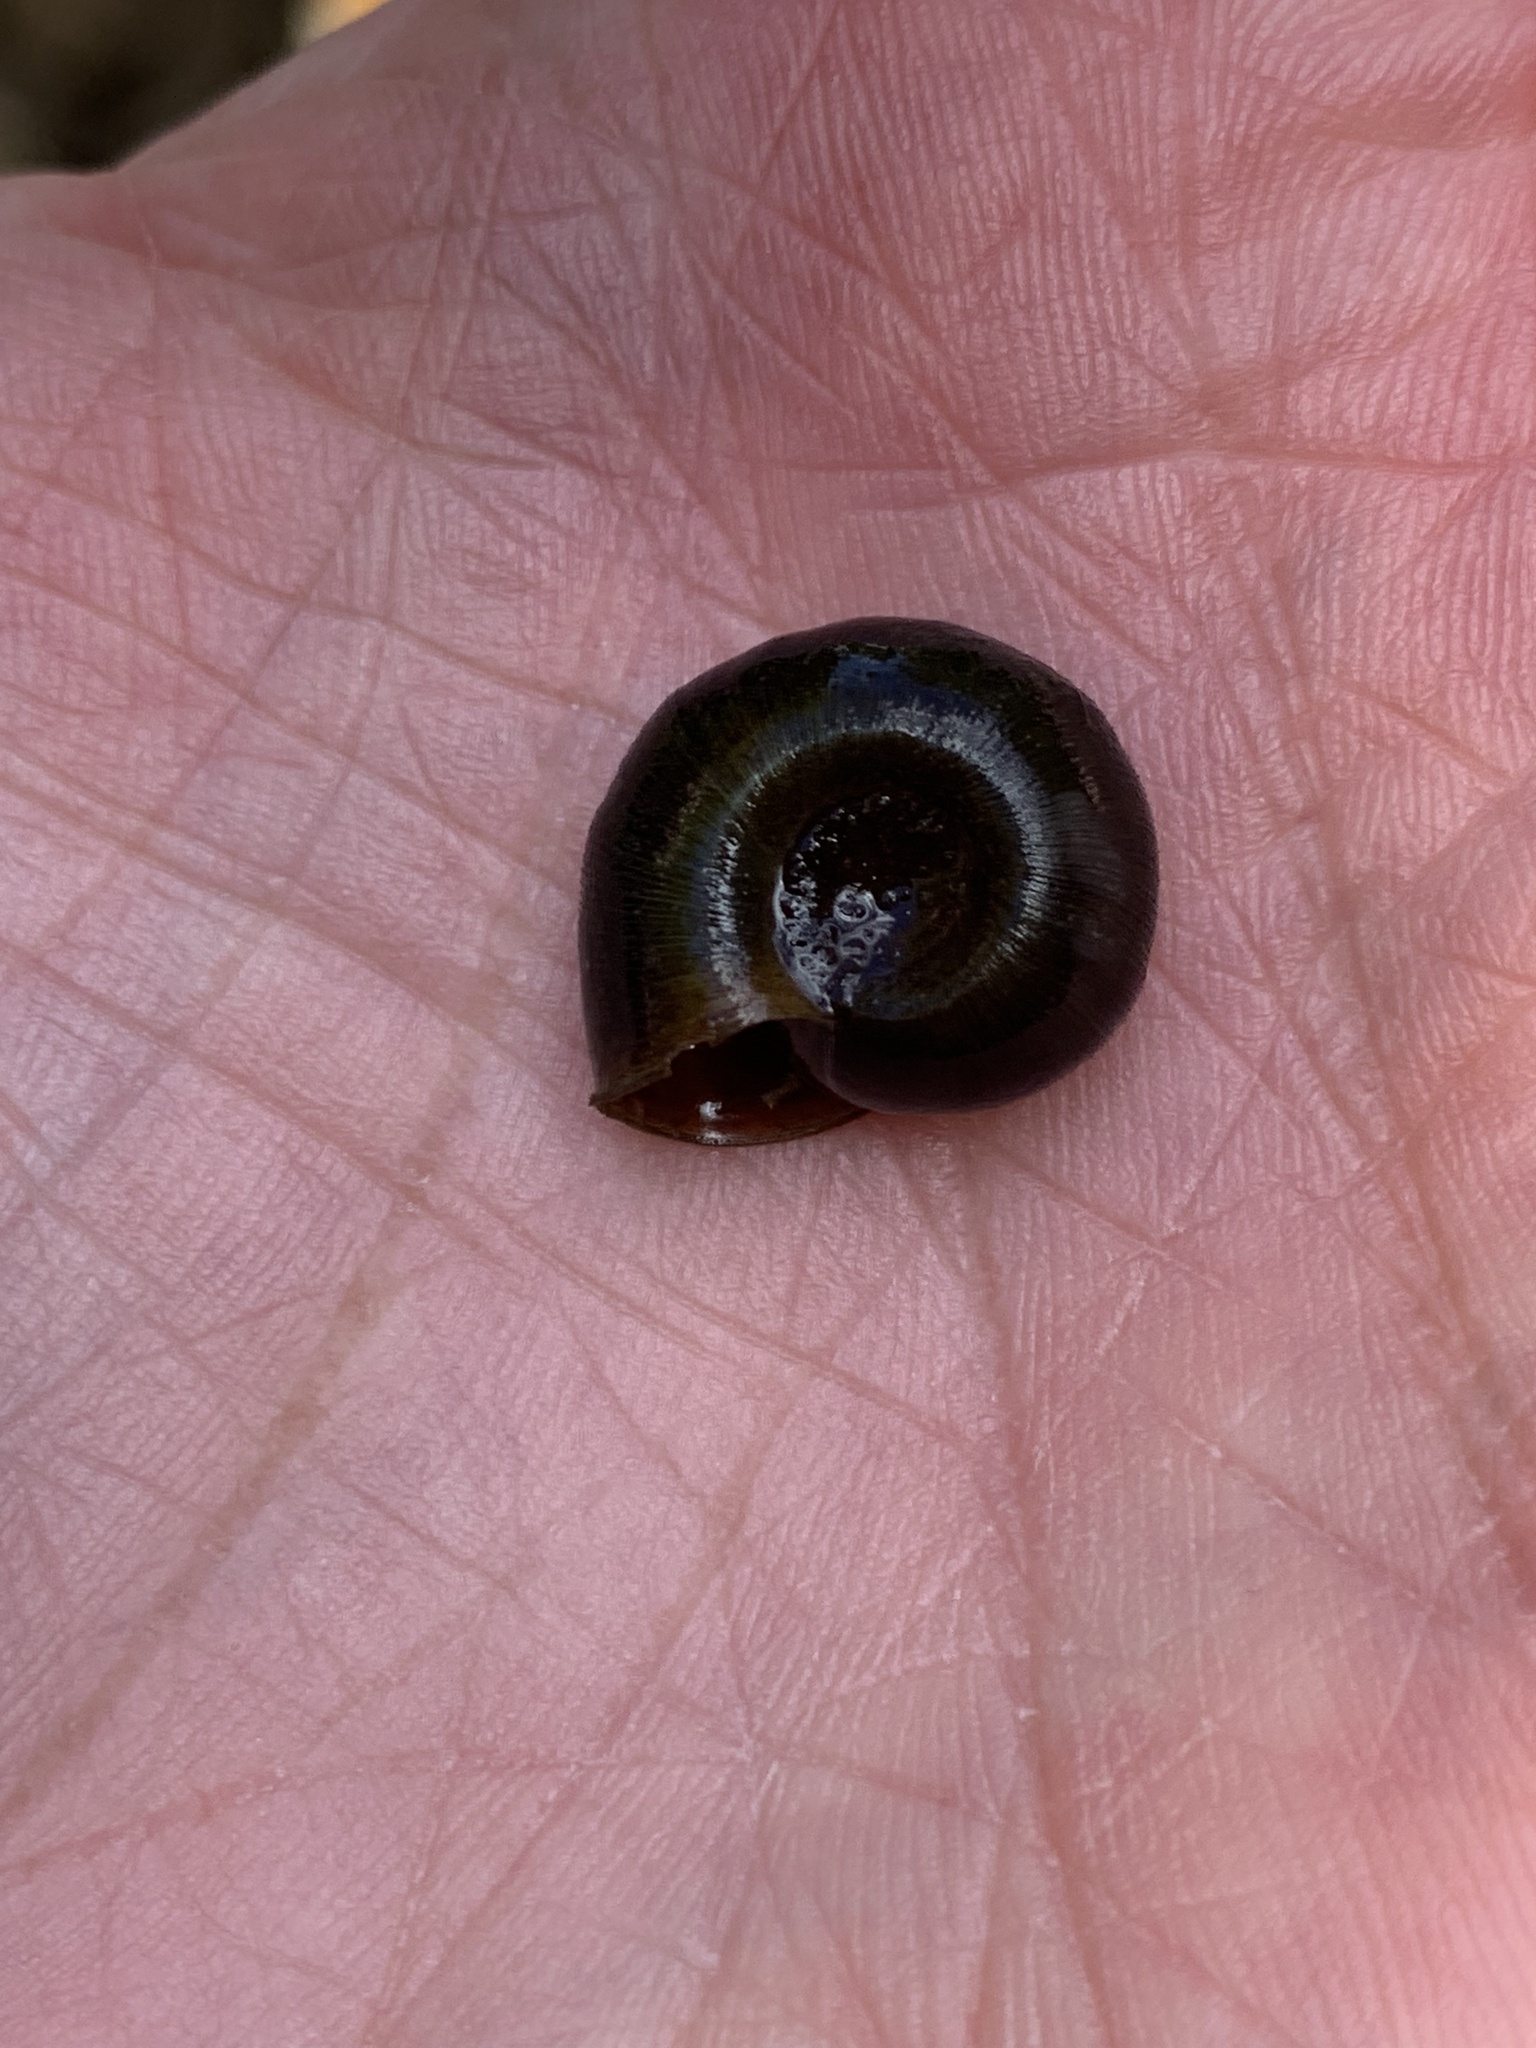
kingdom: Animalia
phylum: Mollusca
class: Gastropoda
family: Planorbidae
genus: Planorbella
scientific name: Planorbella trivolvis
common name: Marsh rams-horn
